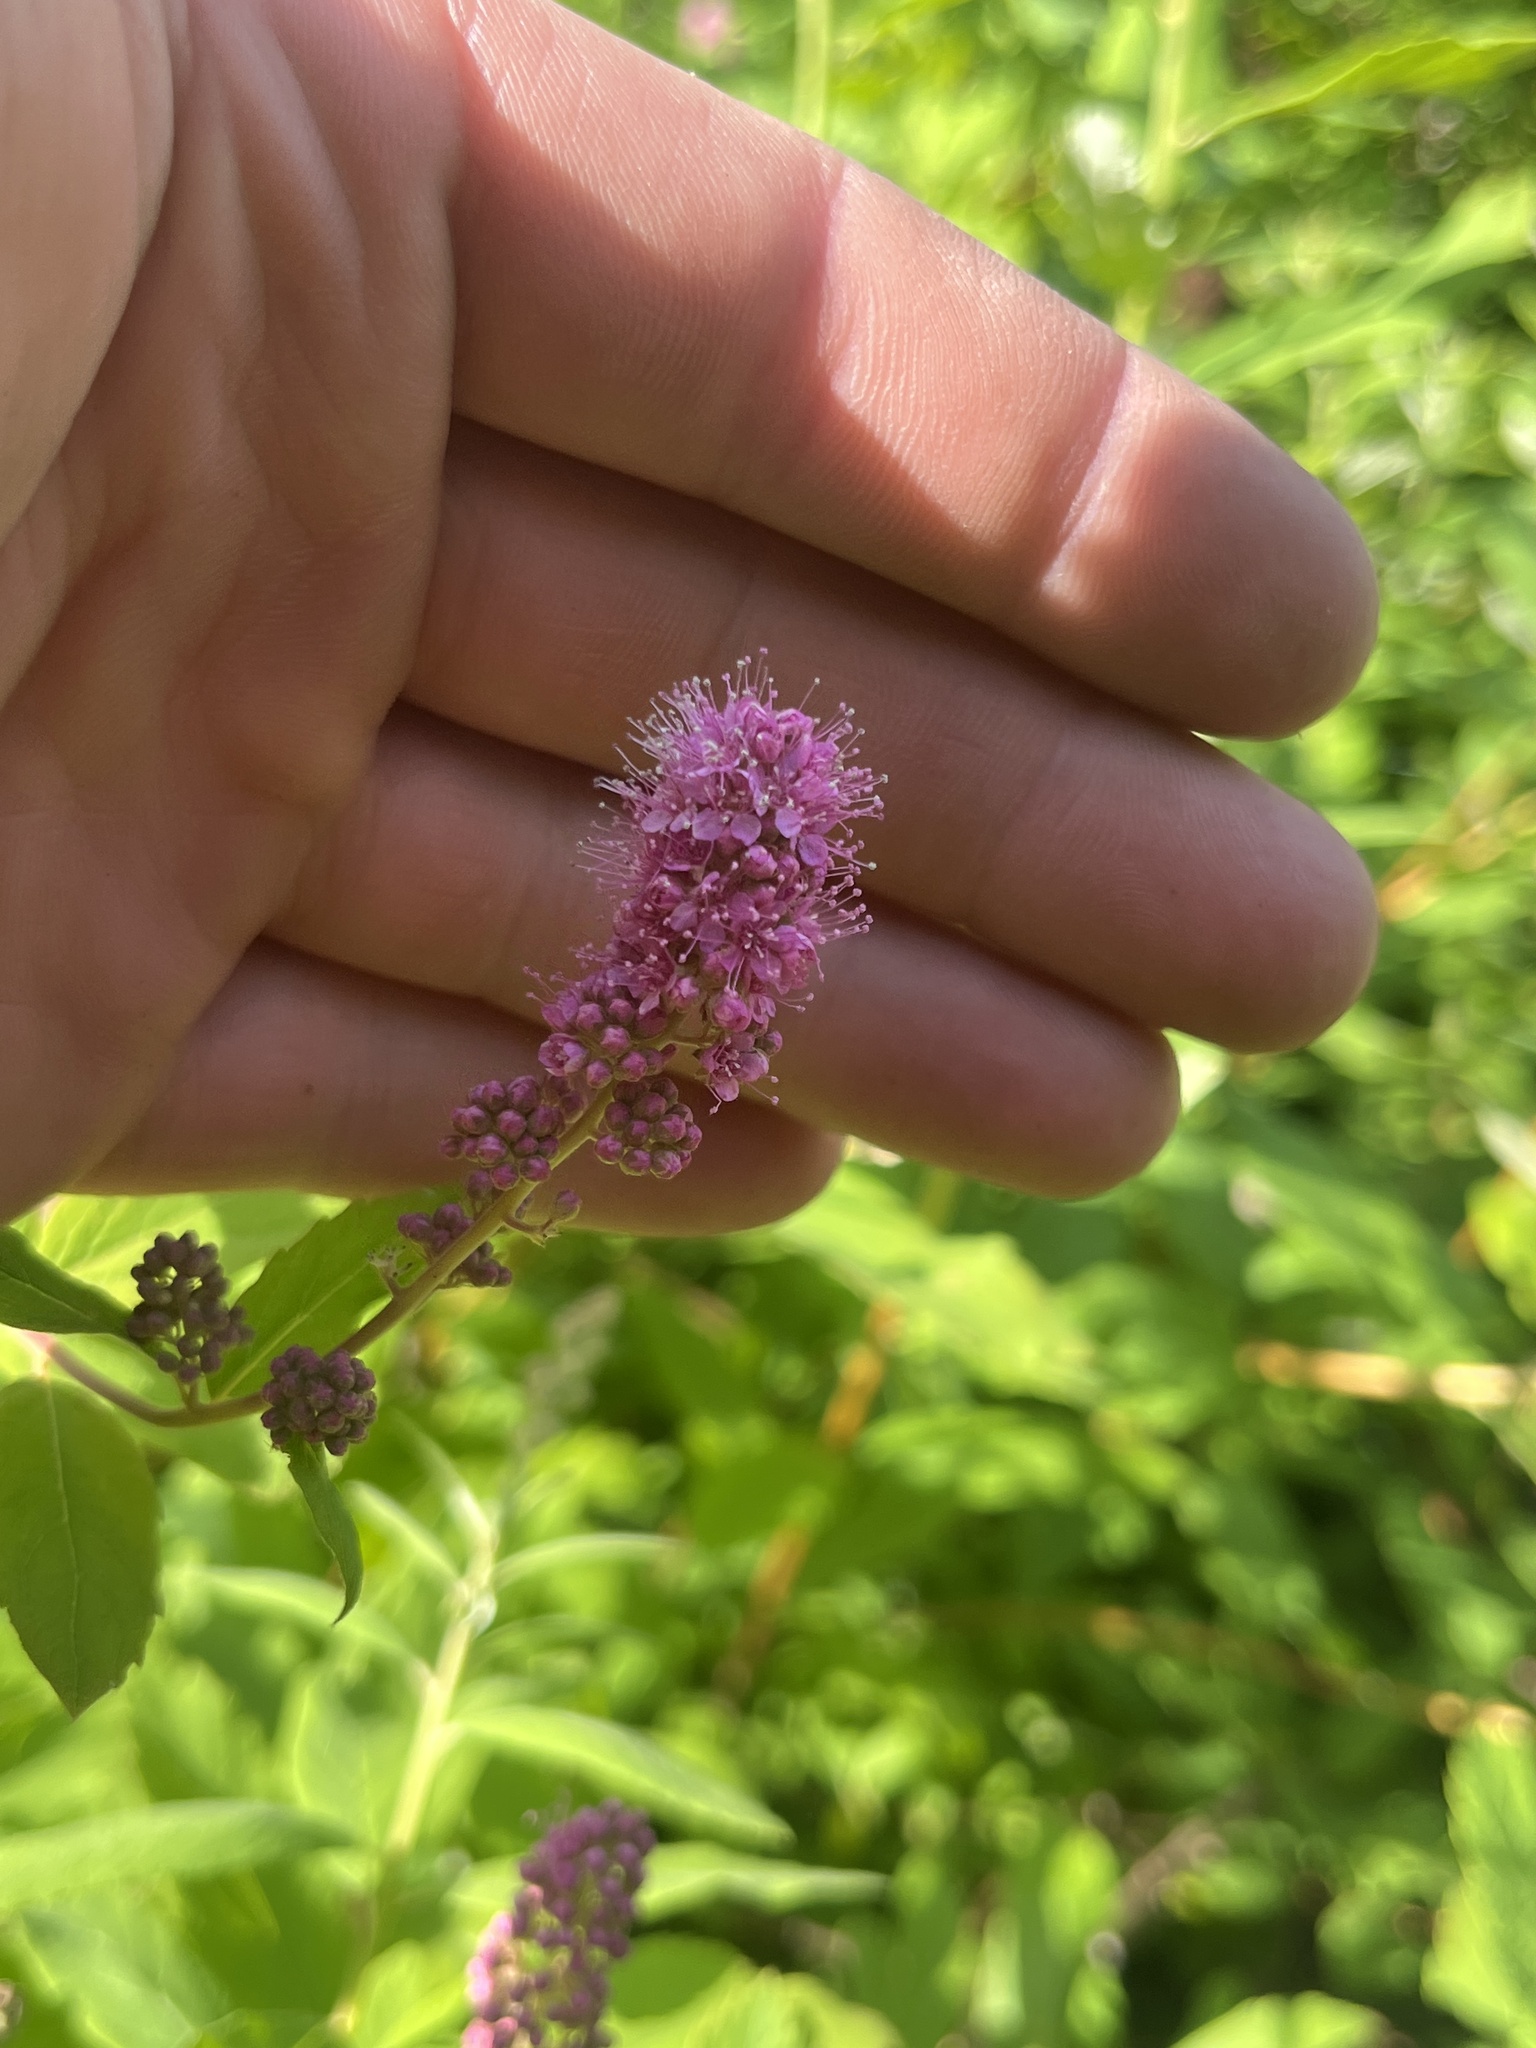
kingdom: Plantae
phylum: Tracheophyta
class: Magnoliopsida
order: Rosales
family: Rosaceae
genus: Spiraea
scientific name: Spiraea douglasii
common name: Steeplebush
